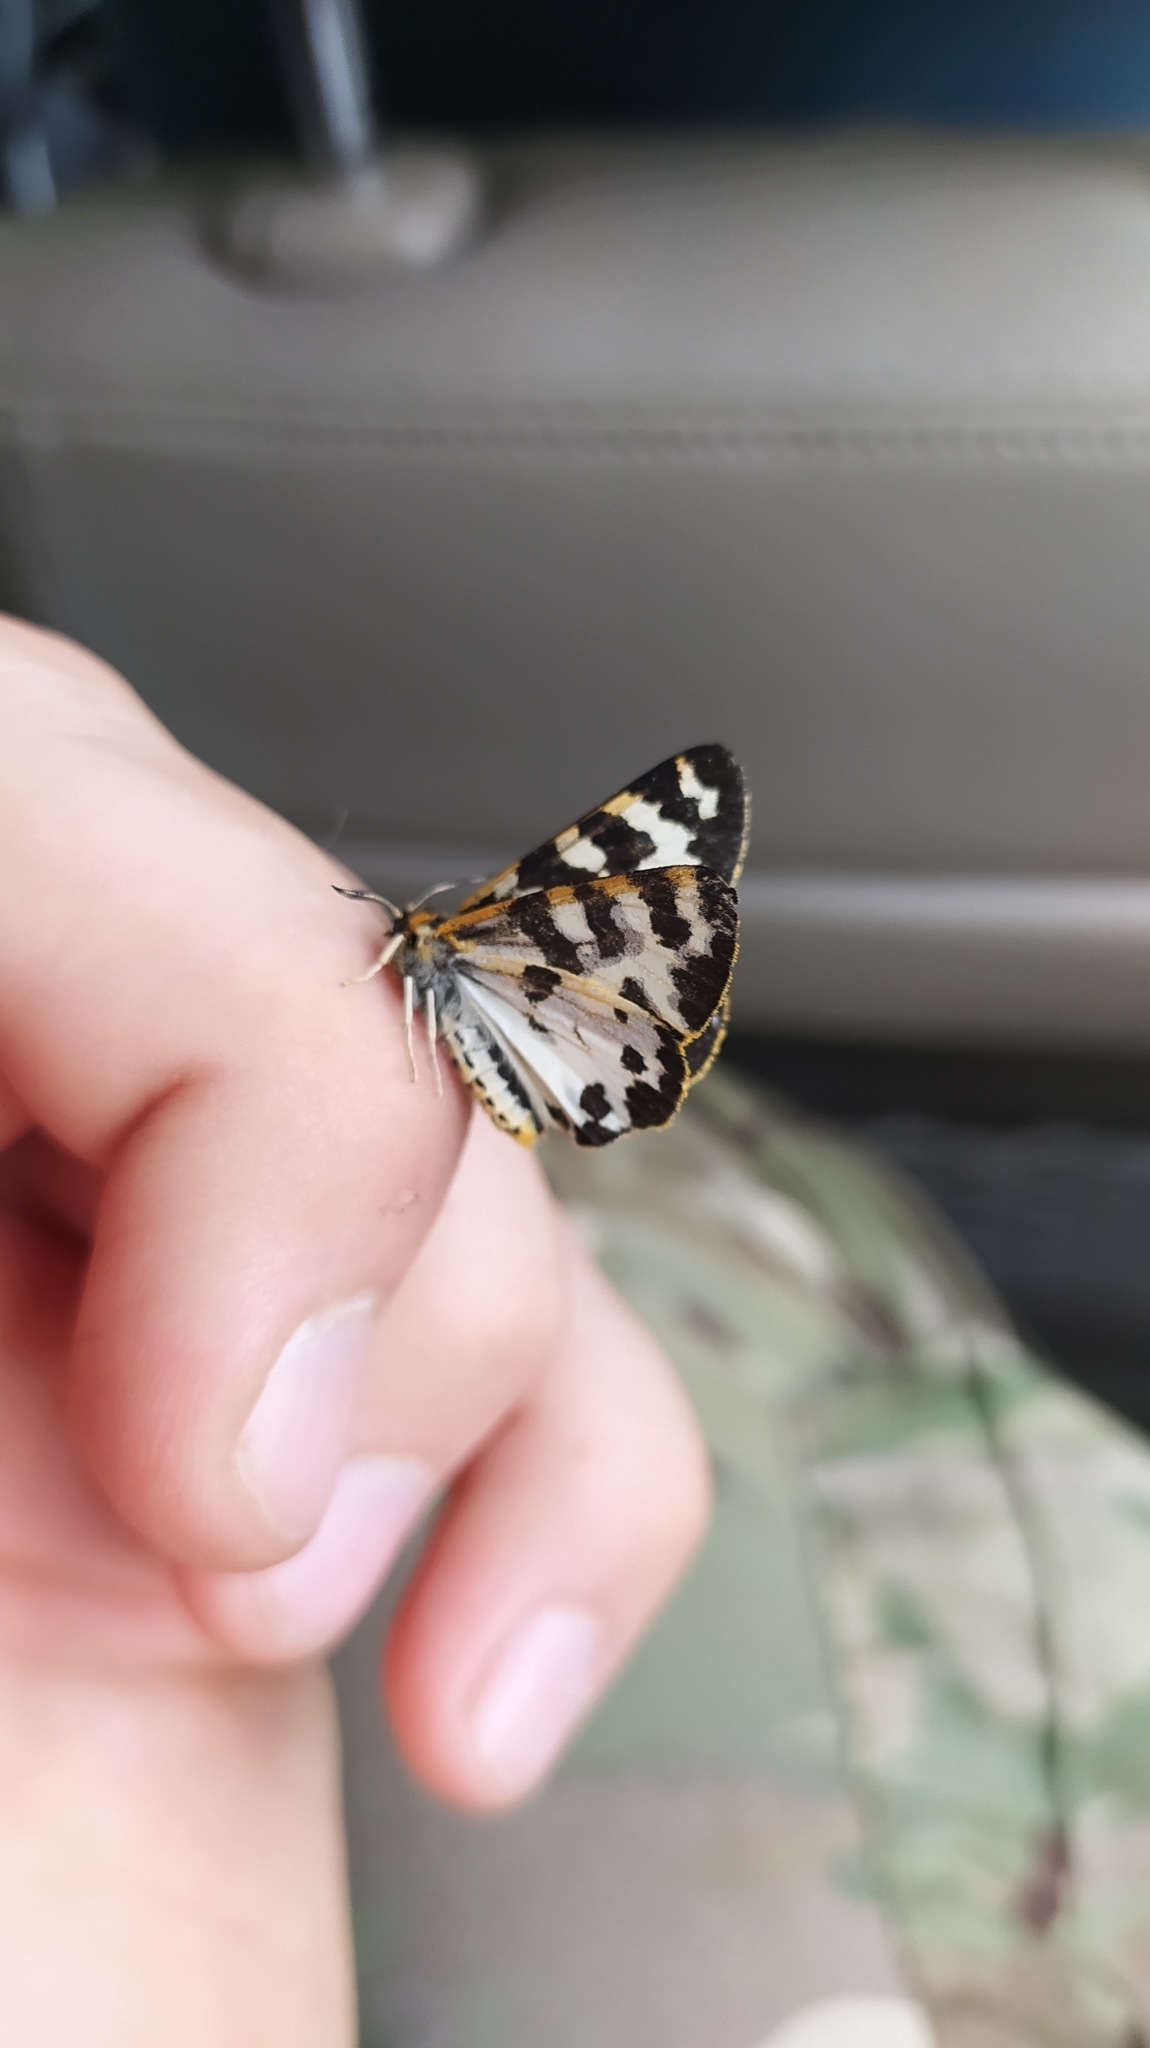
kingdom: Animalia
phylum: Arthropoda
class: Insecta
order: Lepidoptera
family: Erebidae
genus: Parasemia
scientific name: Parasemia plantaginis
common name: Wood tiger
